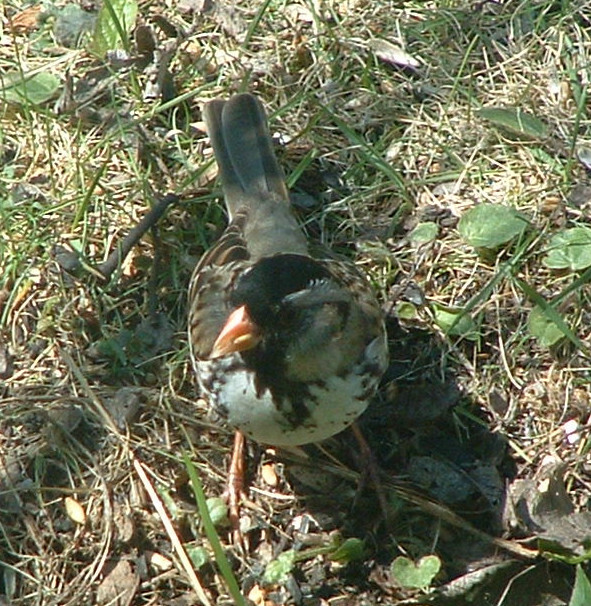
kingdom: Animalia
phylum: Chordata
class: Aves
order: Passeriformes
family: Passerellidae
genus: Zonotrichia
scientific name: Zonotrichia querula
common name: Harris's sparrow
